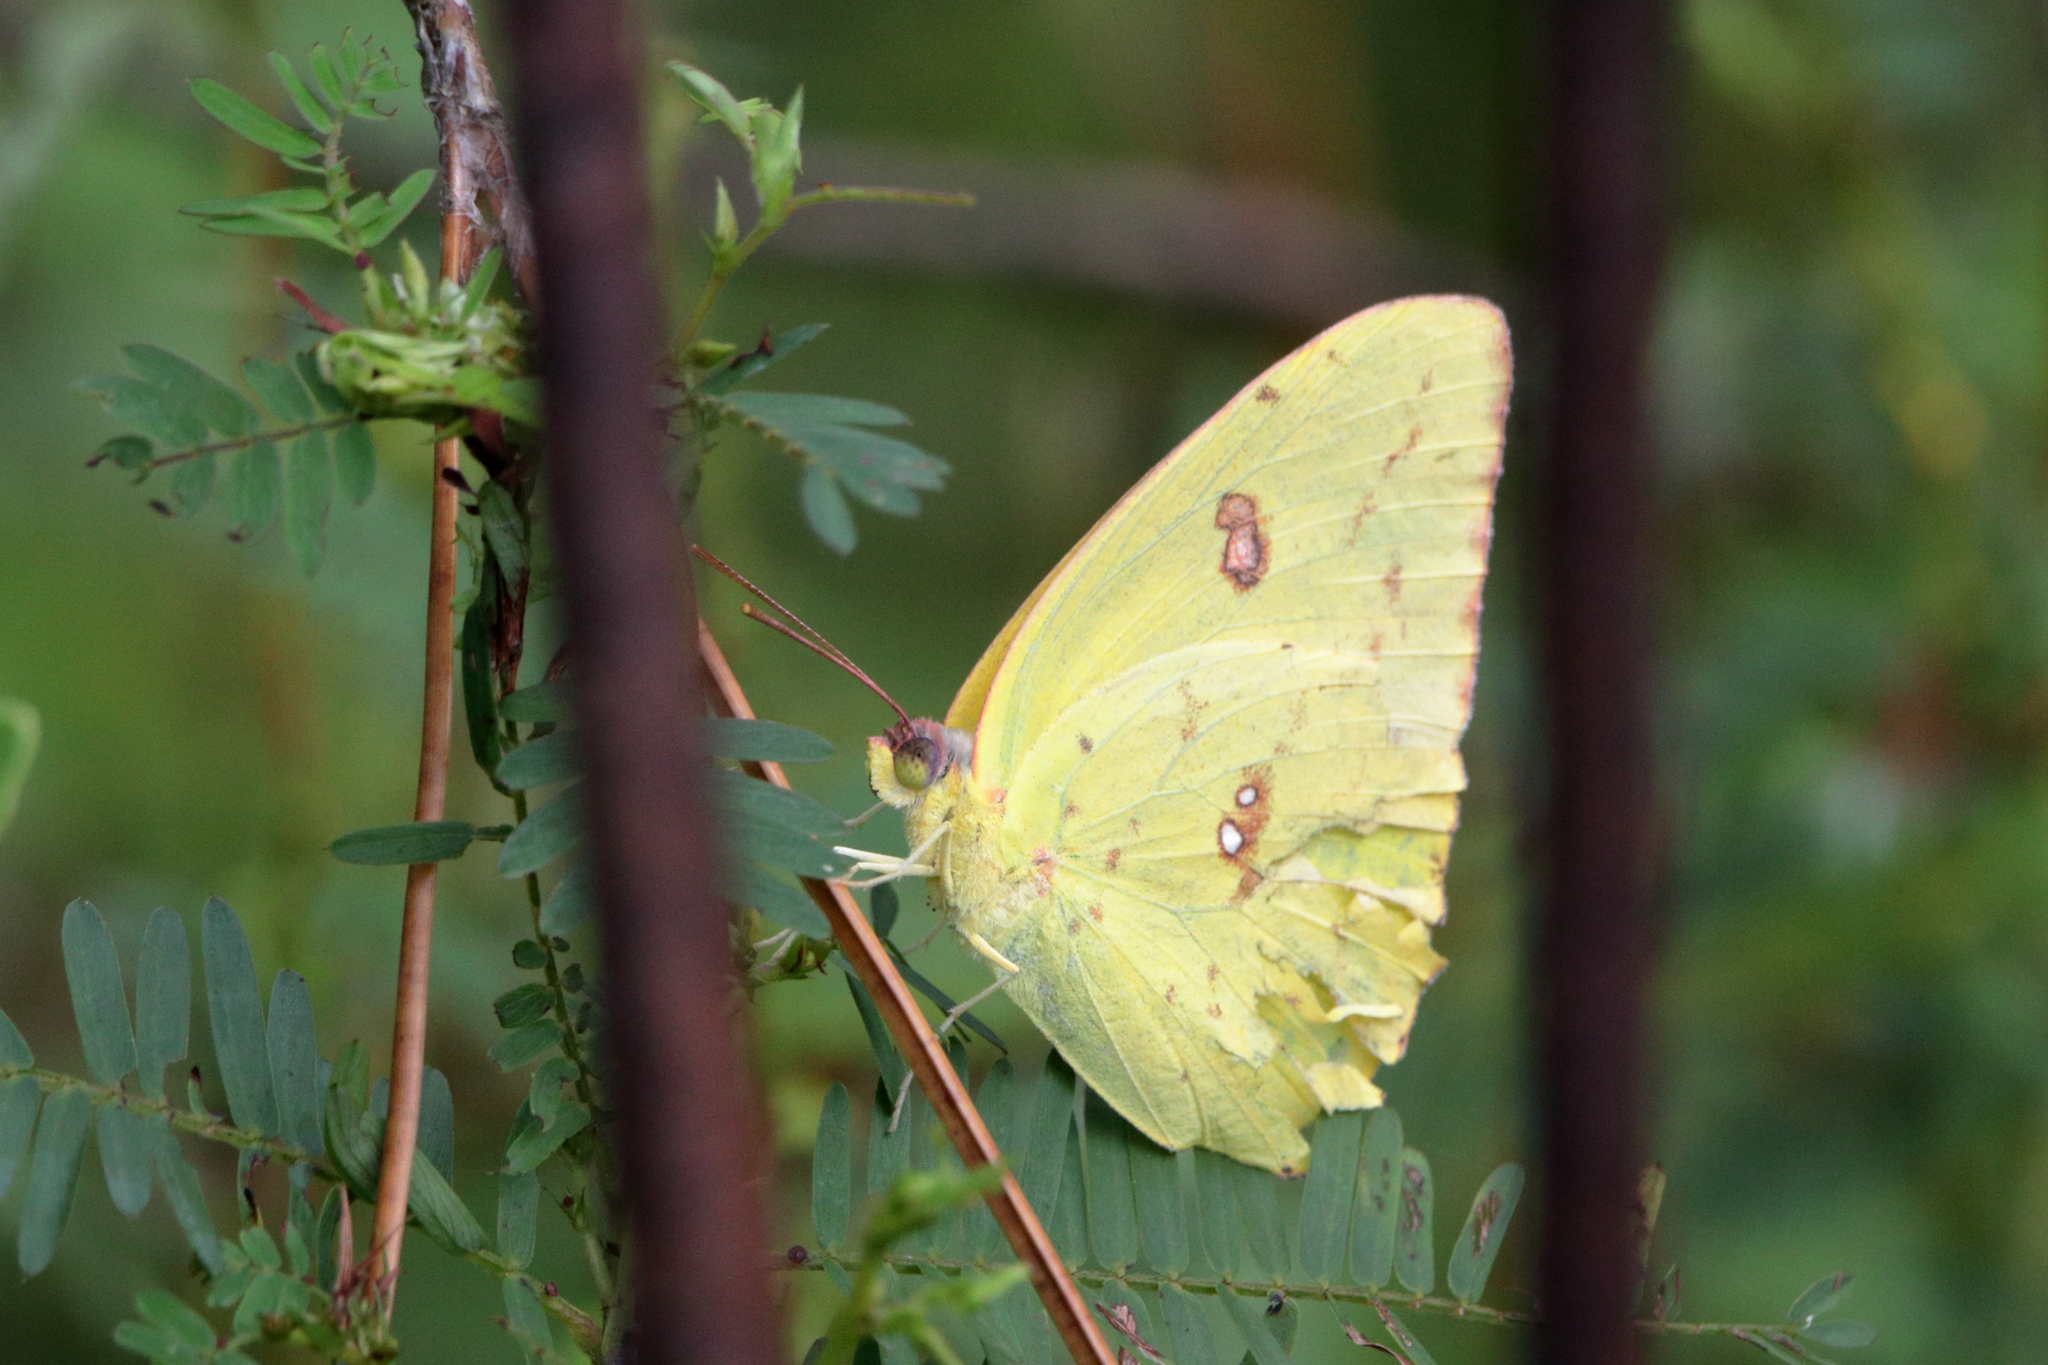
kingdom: Animalia
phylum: Arthropoda
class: Insecta
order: Lepidoptera
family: Pieridae
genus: Phoebis
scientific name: Phoebis sennae
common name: Cloudless sulphur
